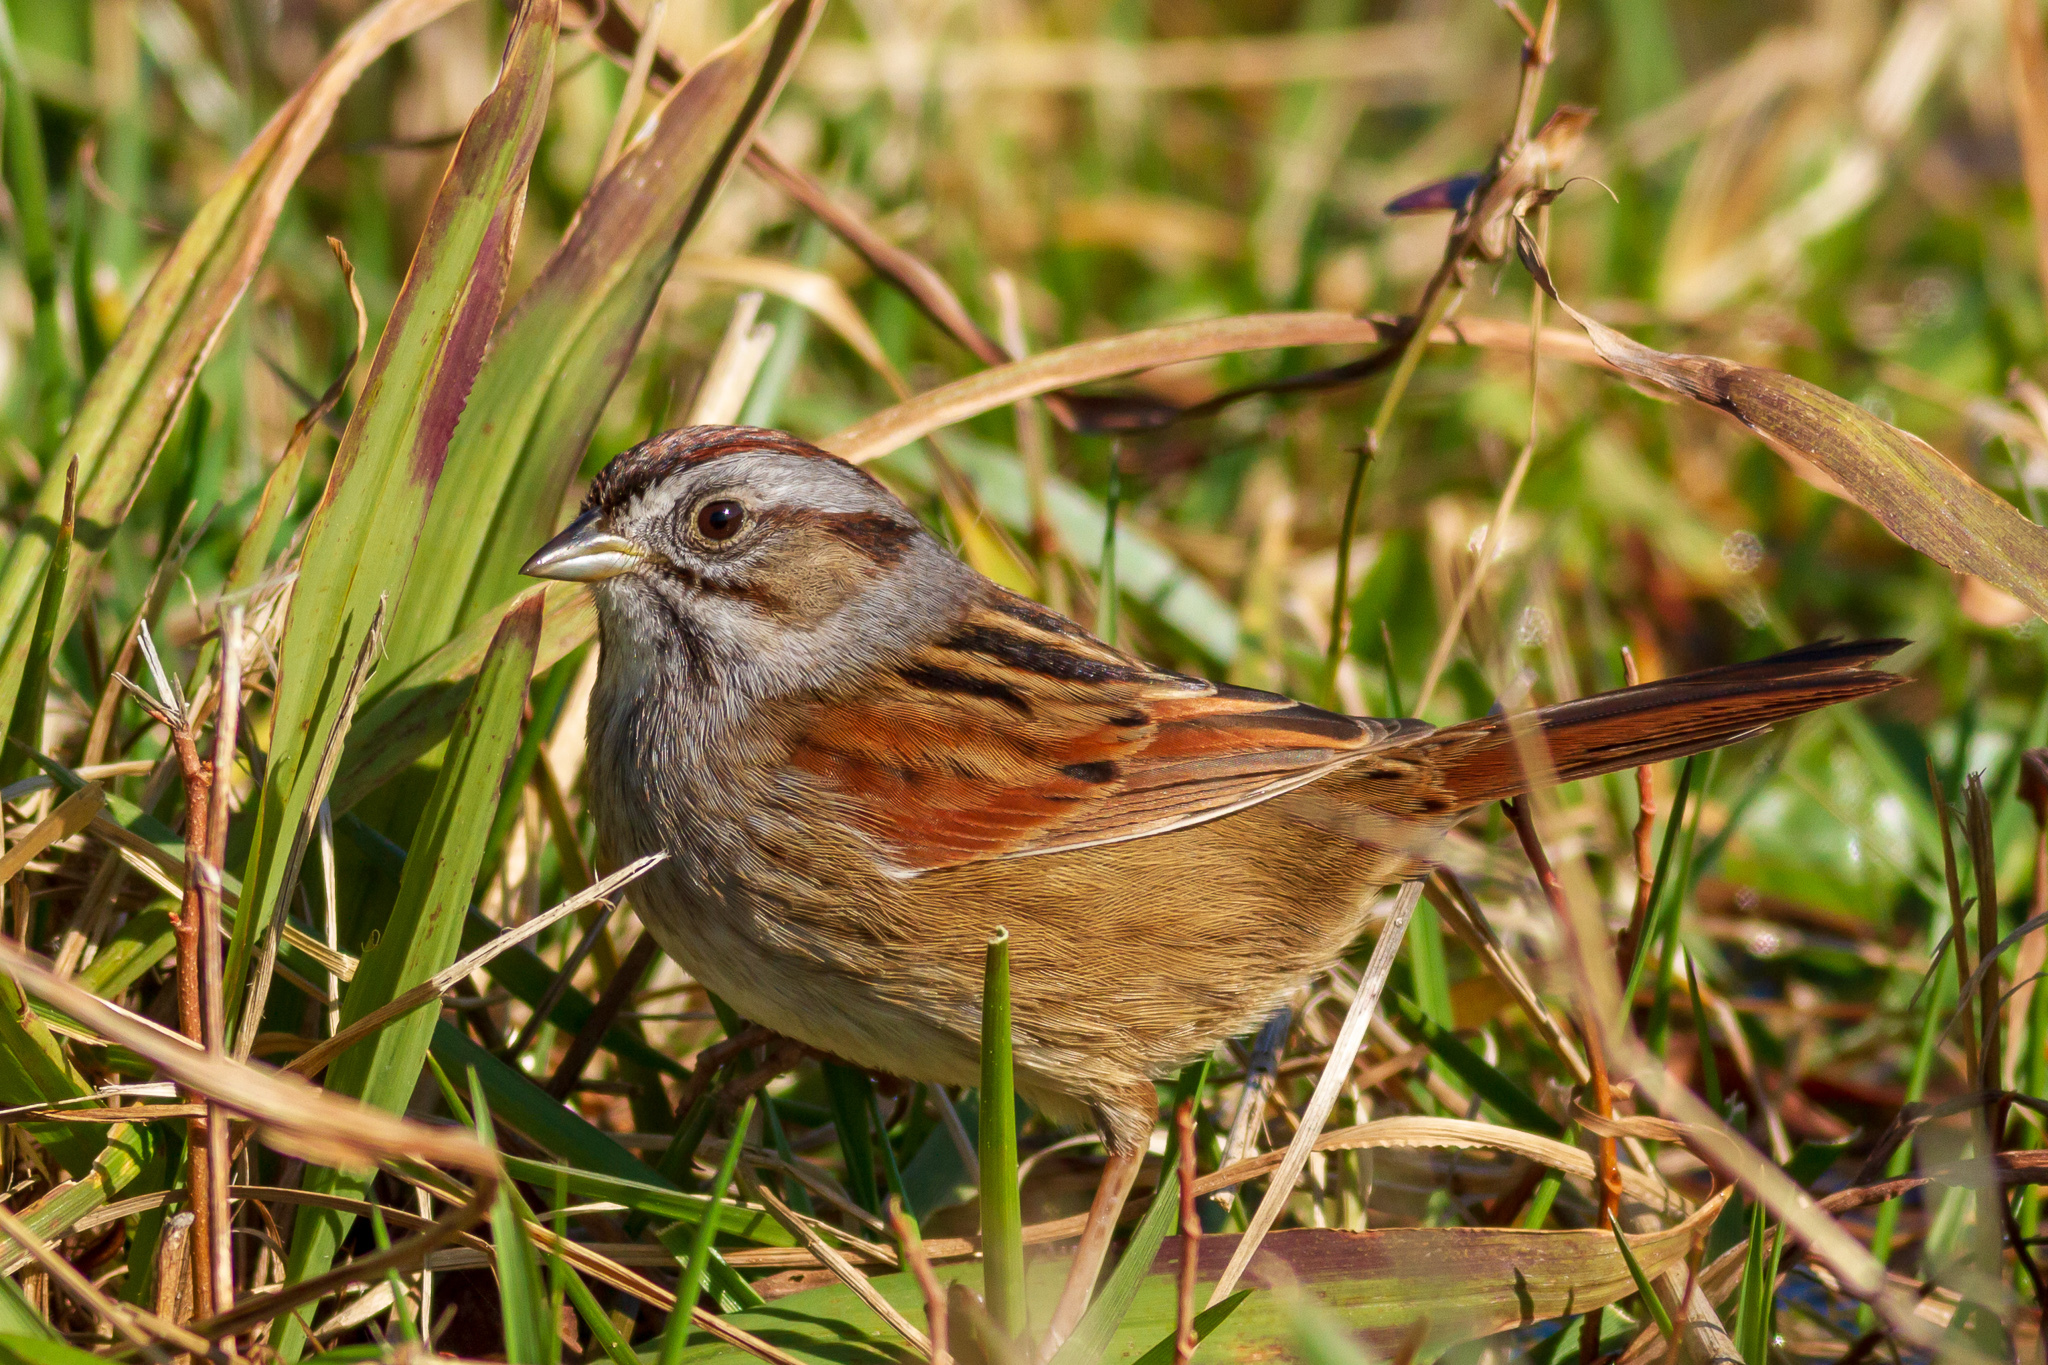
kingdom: Animalia
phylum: Chordata
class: Aves
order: Passeriformes
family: Passerellidae
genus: Melospiza
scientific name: Melospiza georgiana
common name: Swamp sparrow
